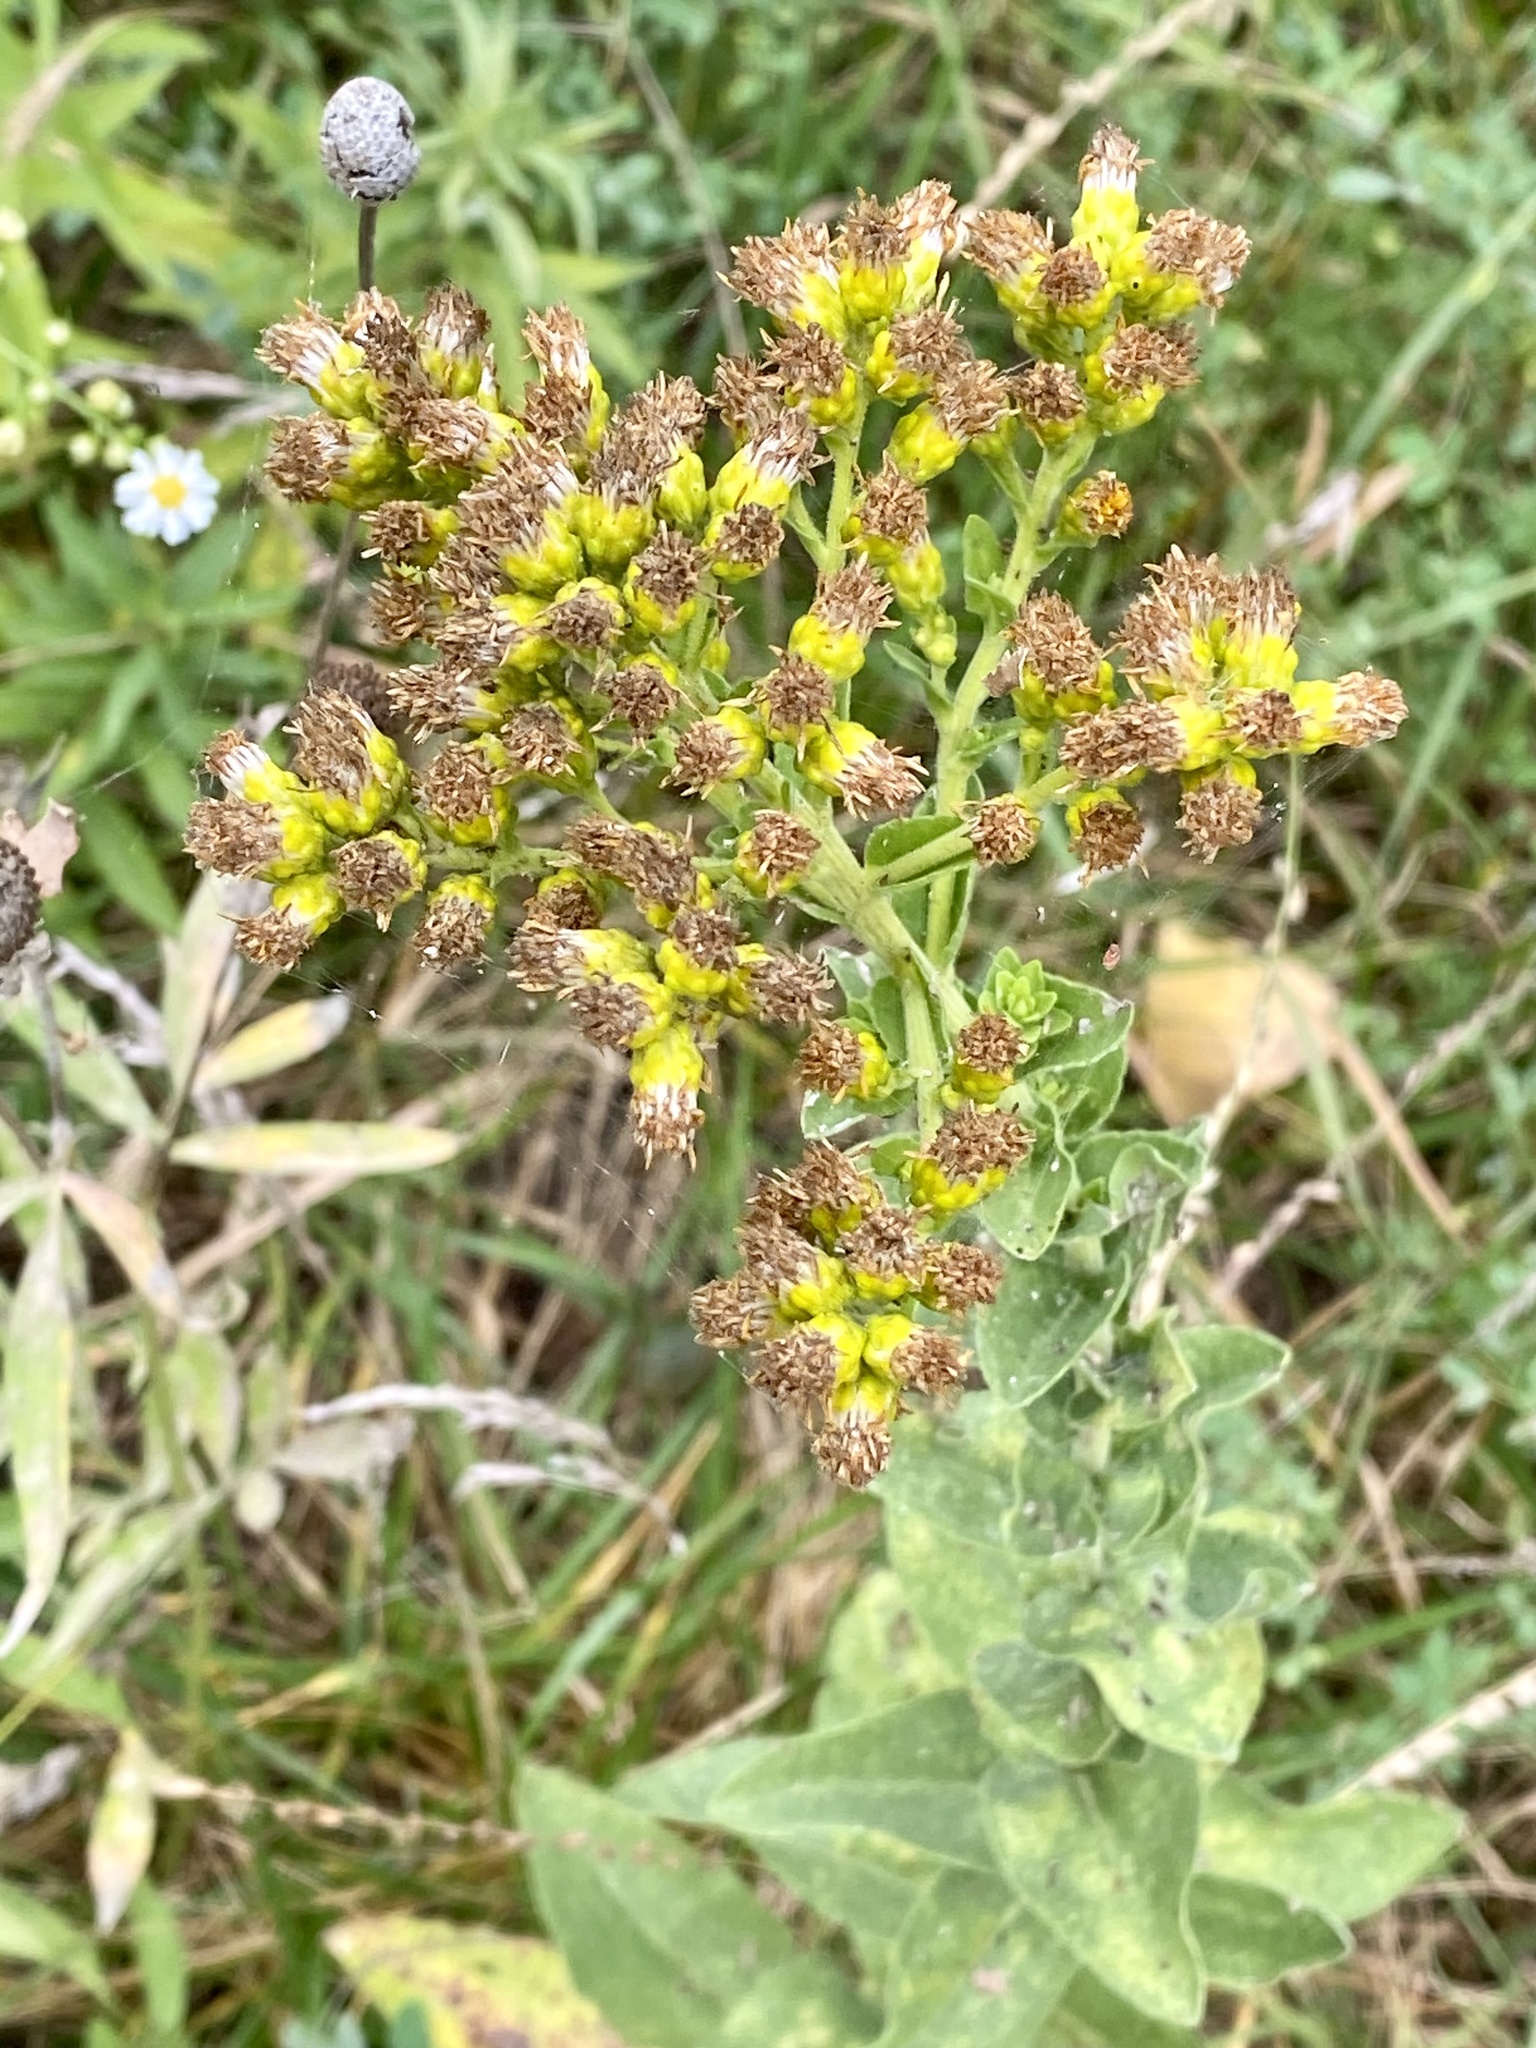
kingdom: Plantae
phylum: Tracheophyta
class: Magnoliopsida
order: Asterales
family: Asteraceae
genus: Solidago
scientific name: Solidago rigida
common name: Rigid goldenrod
